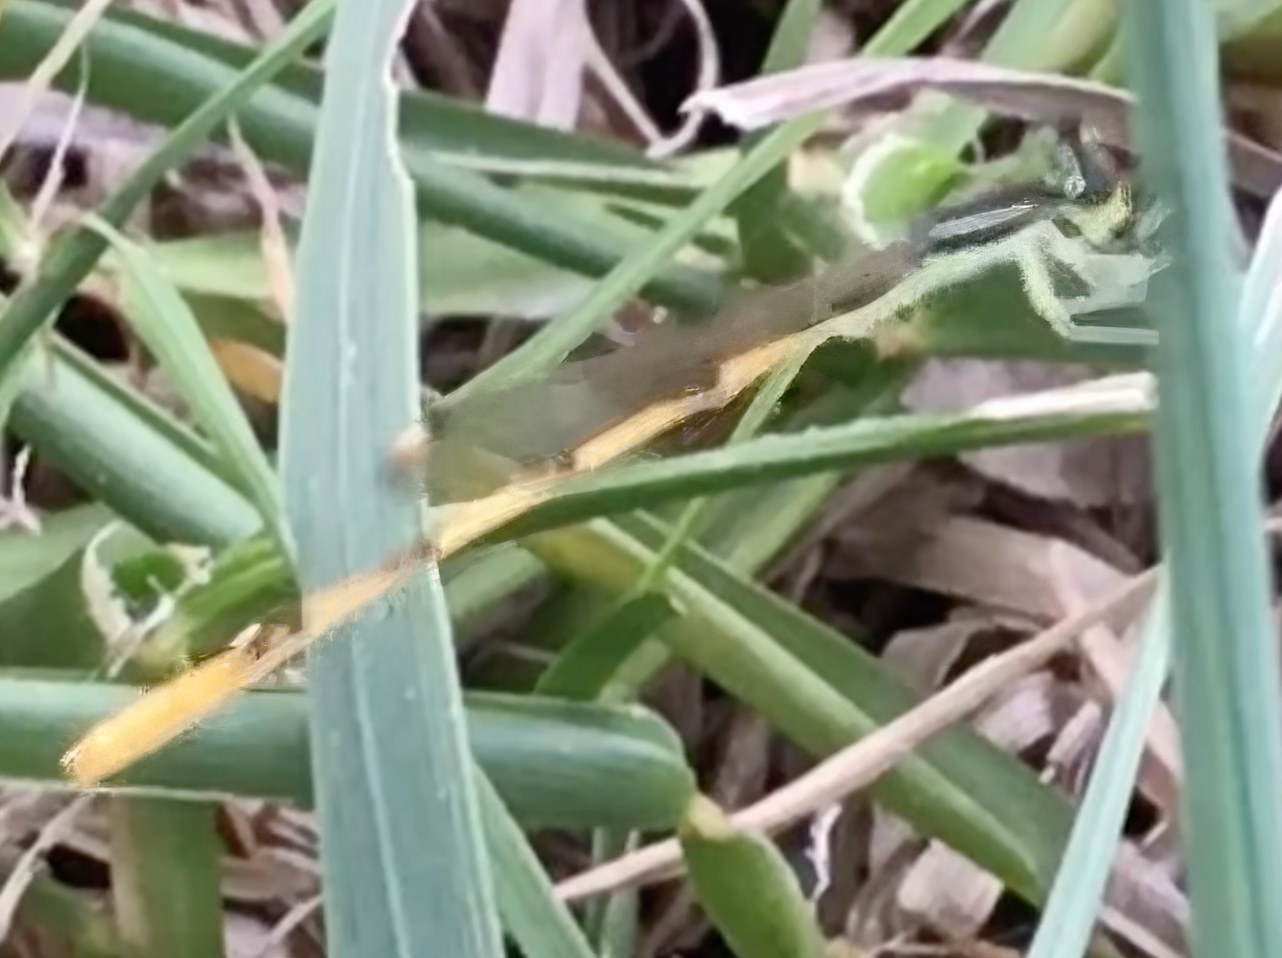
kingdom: Animalia
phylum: Arthropoda
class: Insecta
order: Odonata
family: Coenagrionidae
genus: Ischnura
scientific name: Ischnura hastata
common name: Citrine forktail
